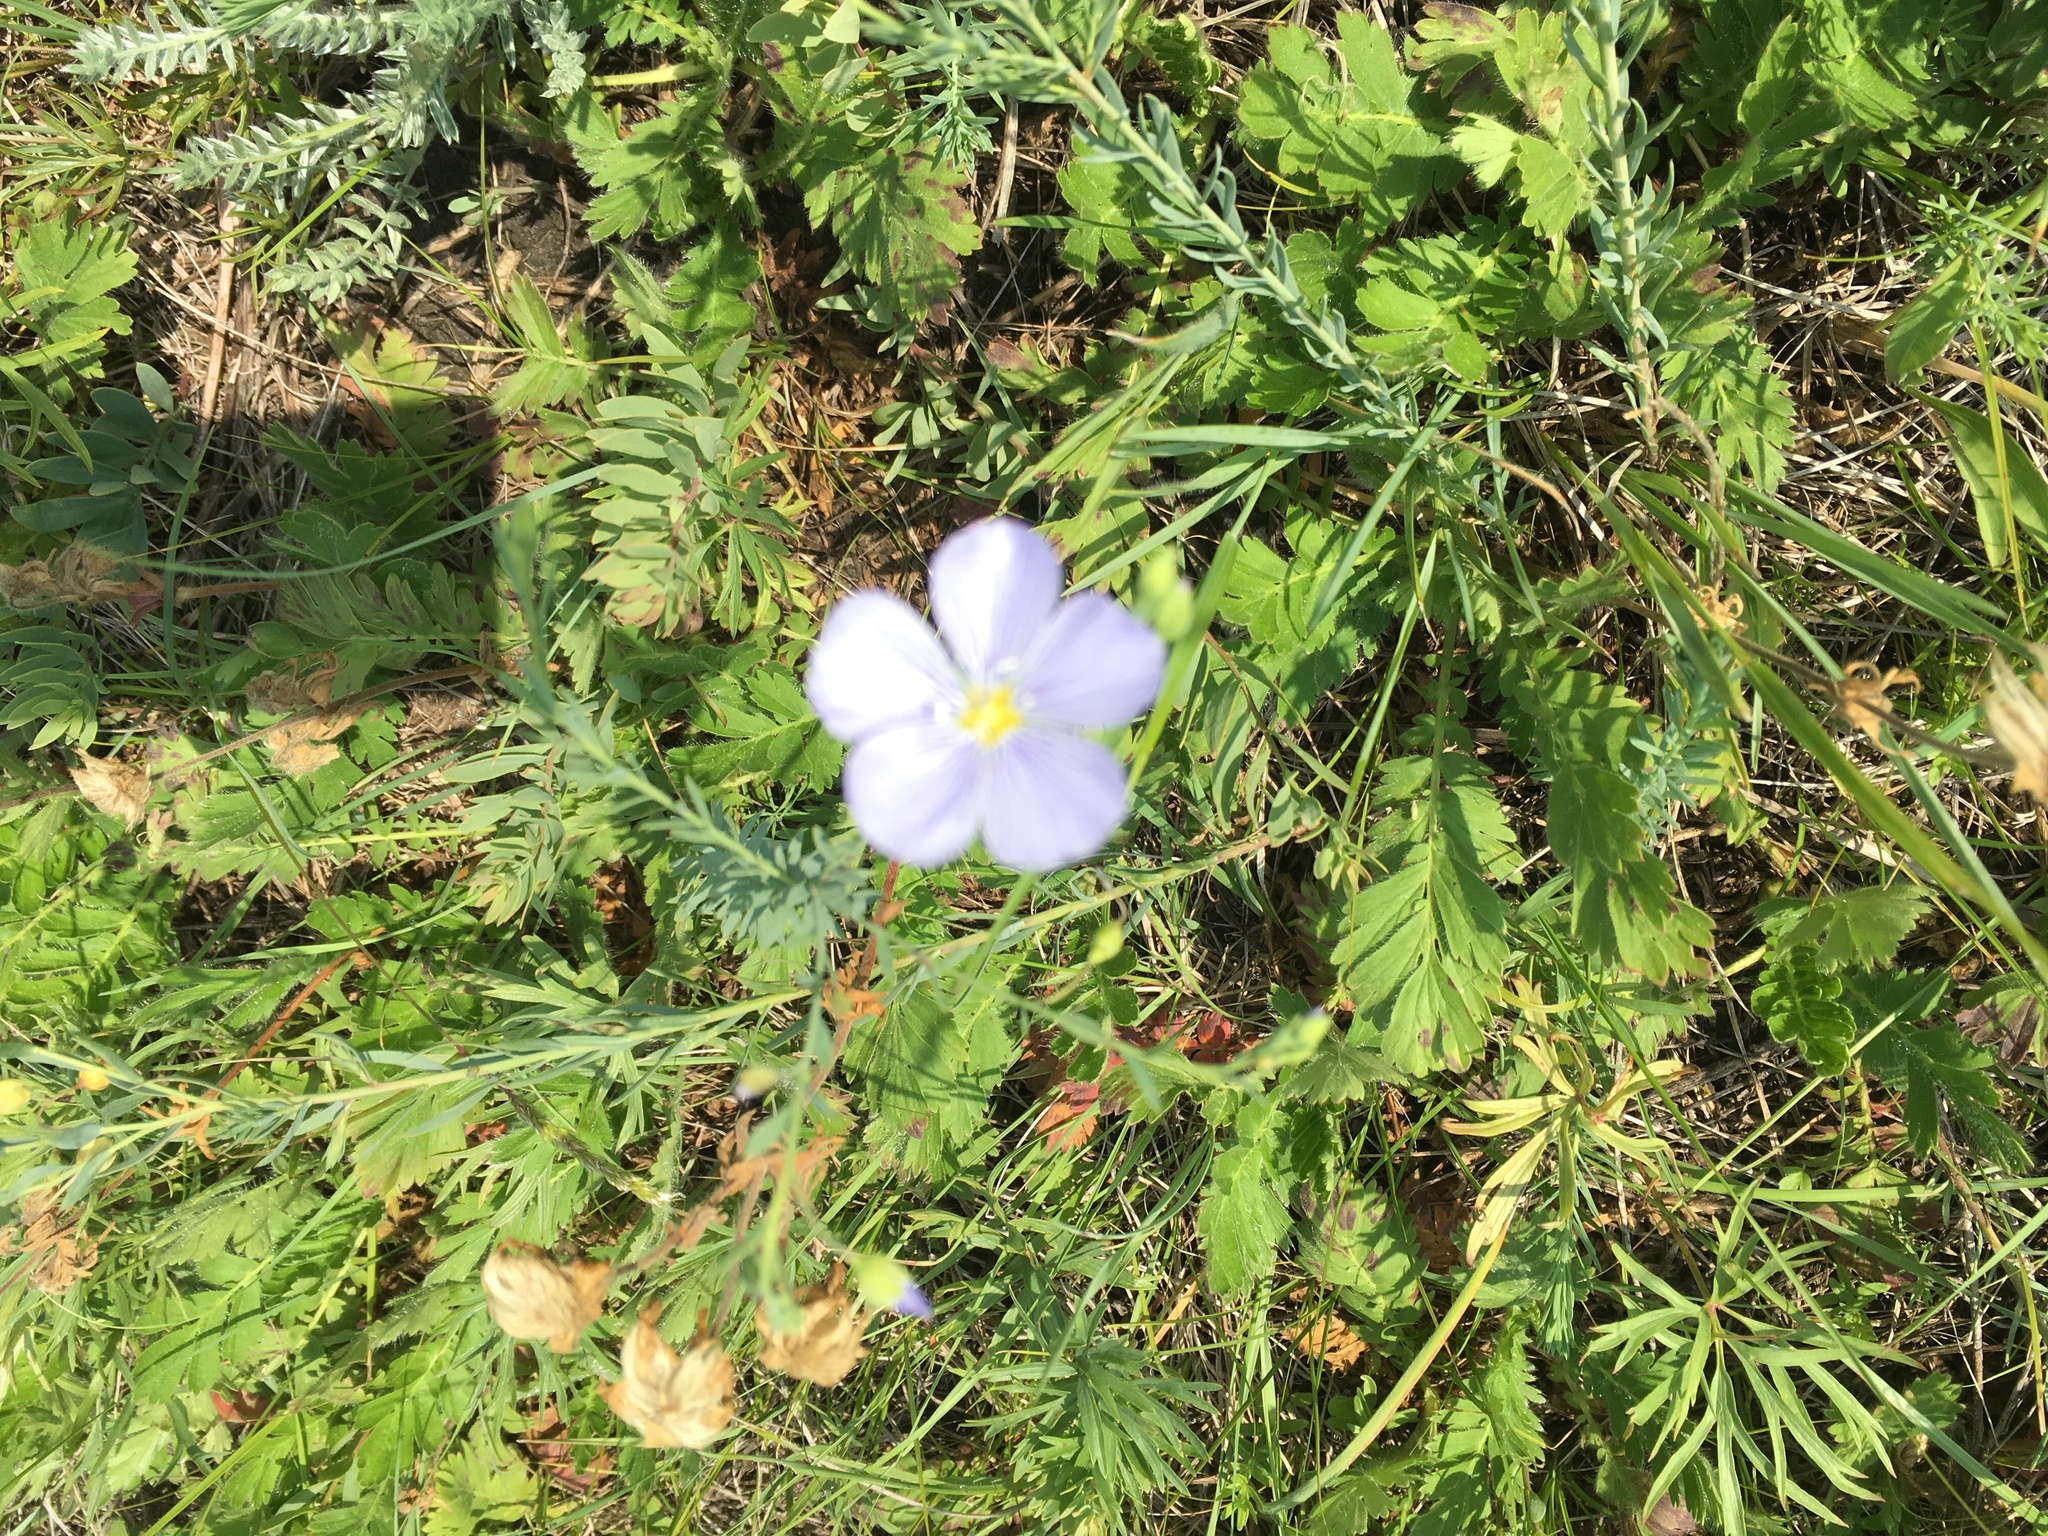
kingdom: Plantae
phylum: Tracheophyta
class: Magnoliopsida
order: Malpighiales
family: Linaceae
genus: Linum
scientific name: Linum lewisii
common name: Prairie flax
